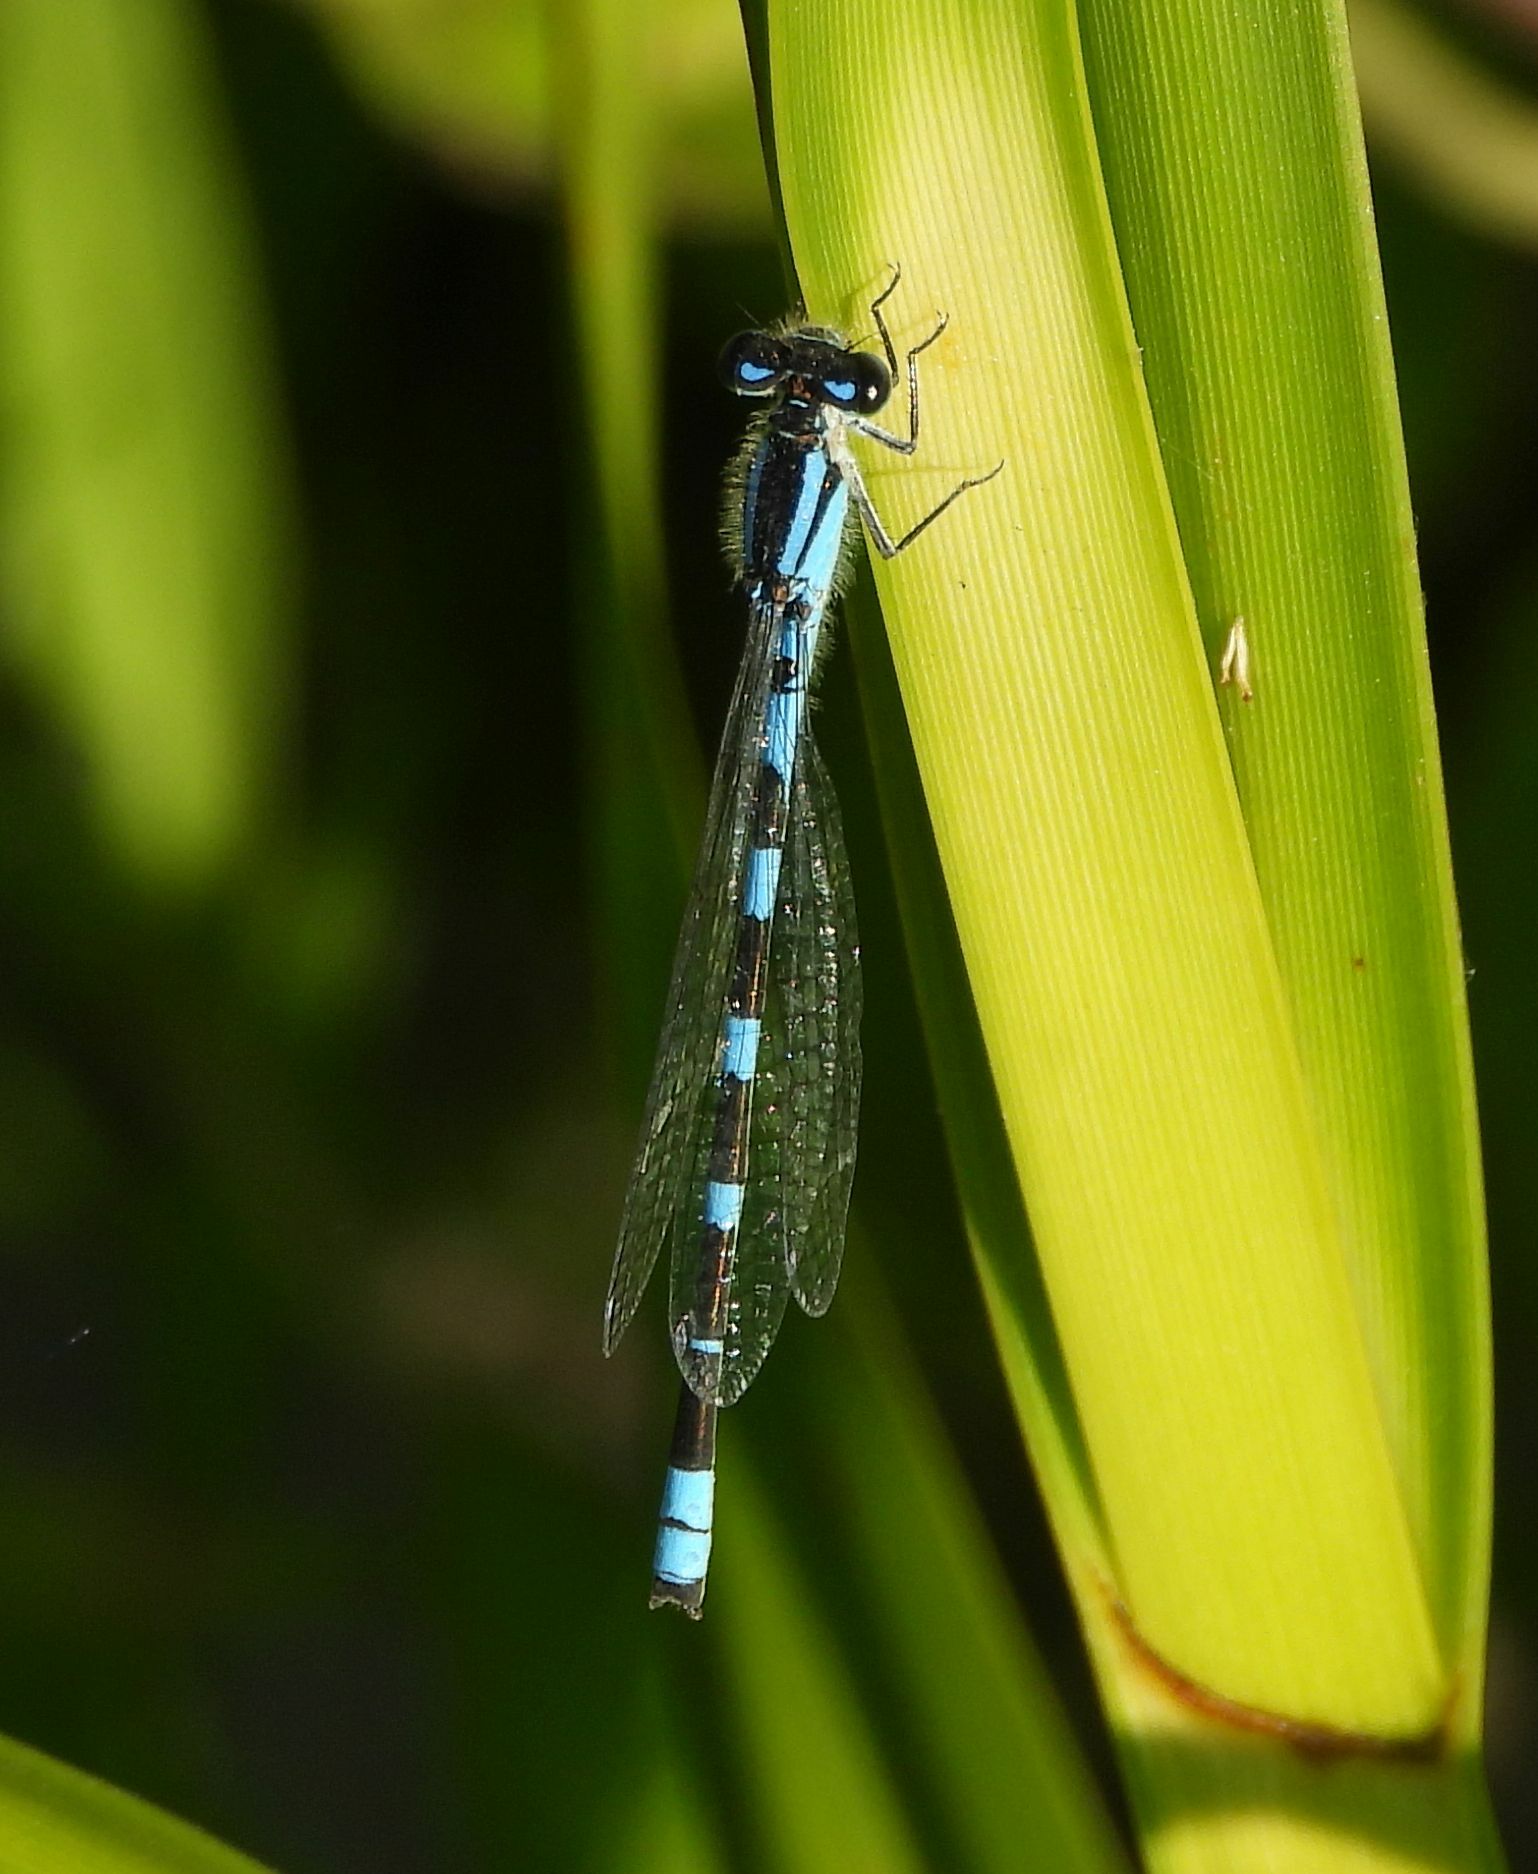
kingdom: Animalia
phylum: Arthropoda
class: Insecta
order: Odonata
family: Coenagrionidae
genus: Enallagma
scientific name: Enallagma carunculatum
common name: Tule bluet
